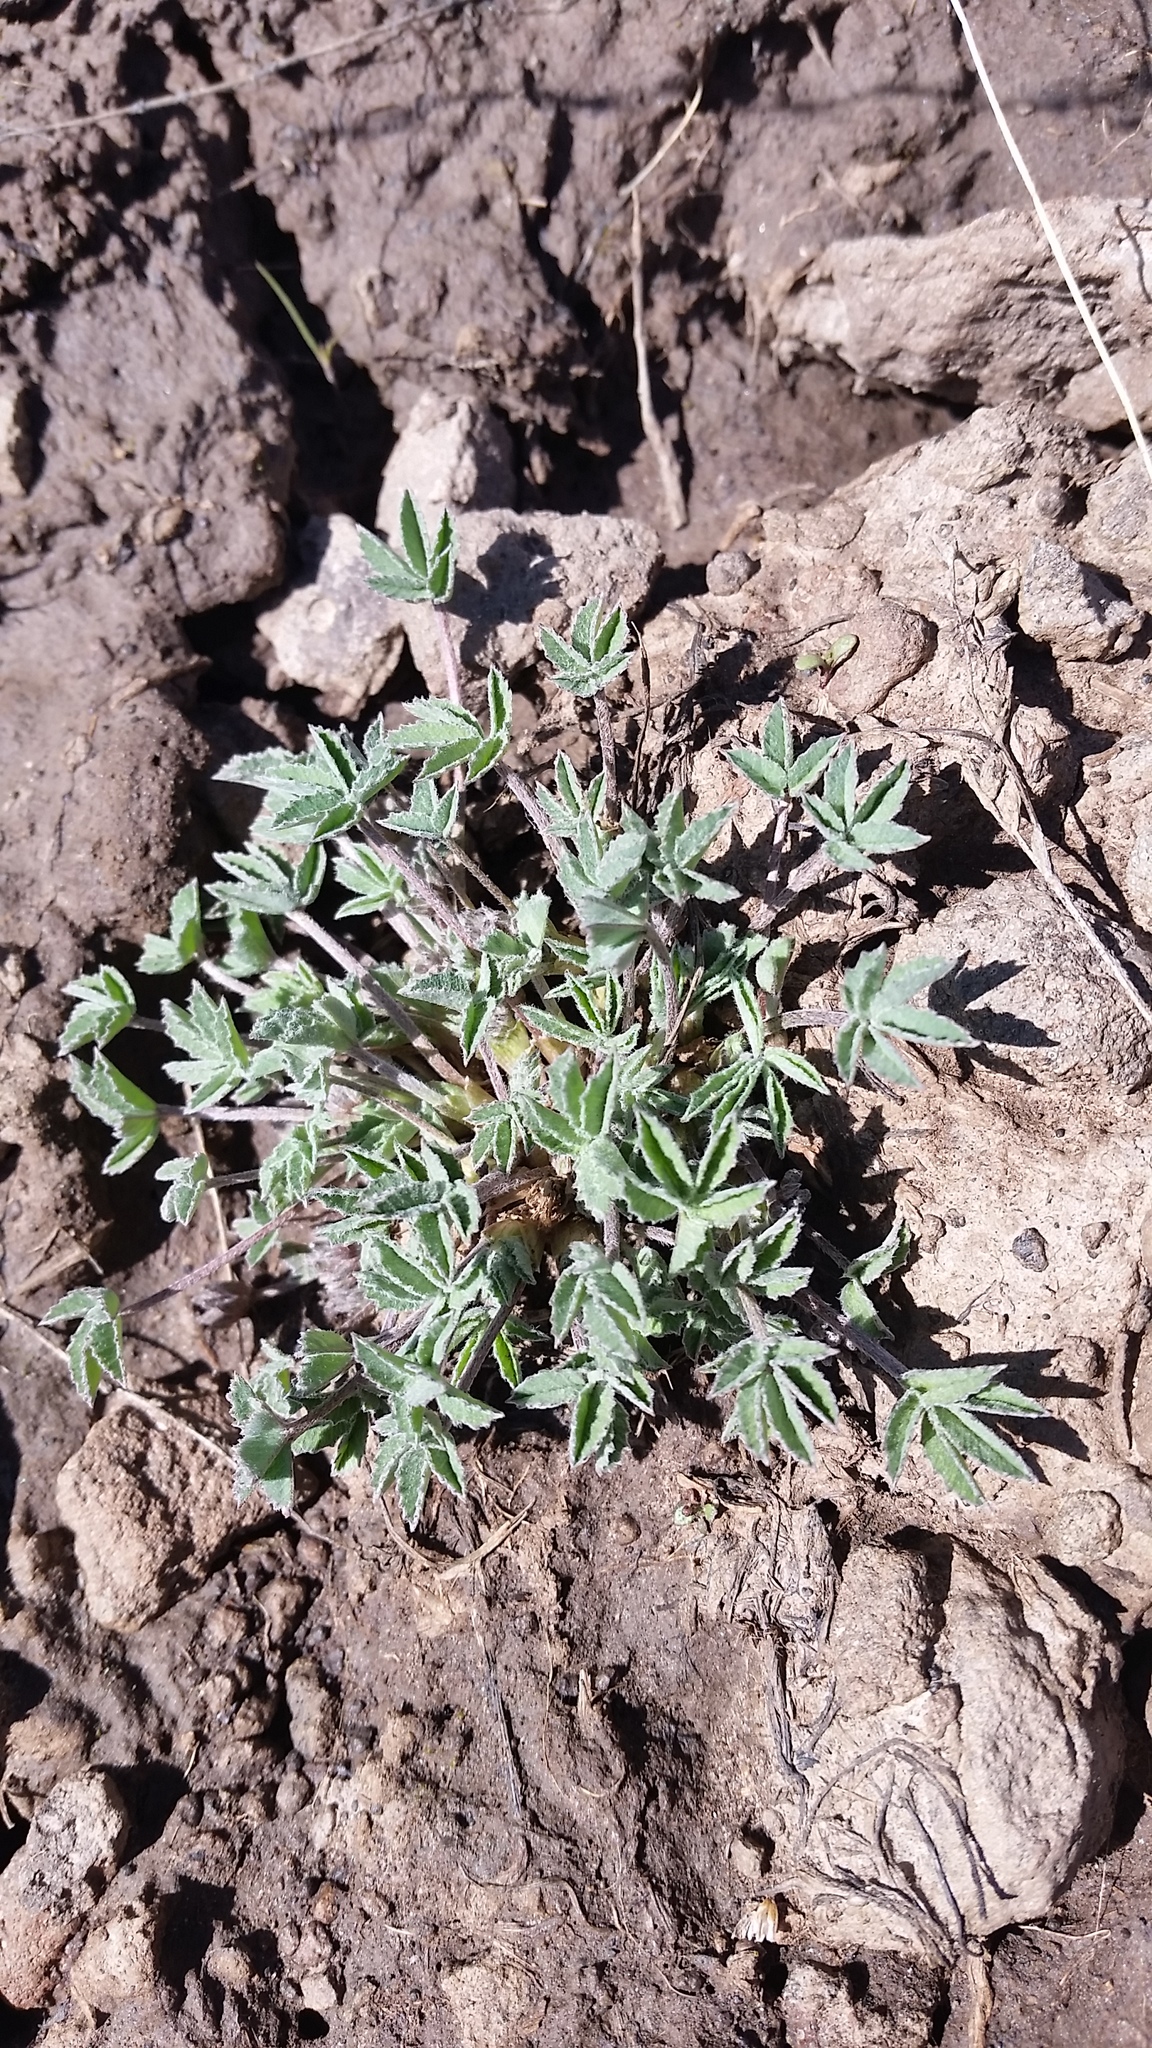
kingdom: Plantae
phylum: Tracheophyta
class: Magnoliopsida
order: Fabales
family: Fabaceae
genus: Trifolium
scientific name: Trifolium macrocephalum
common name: Large-head clover
